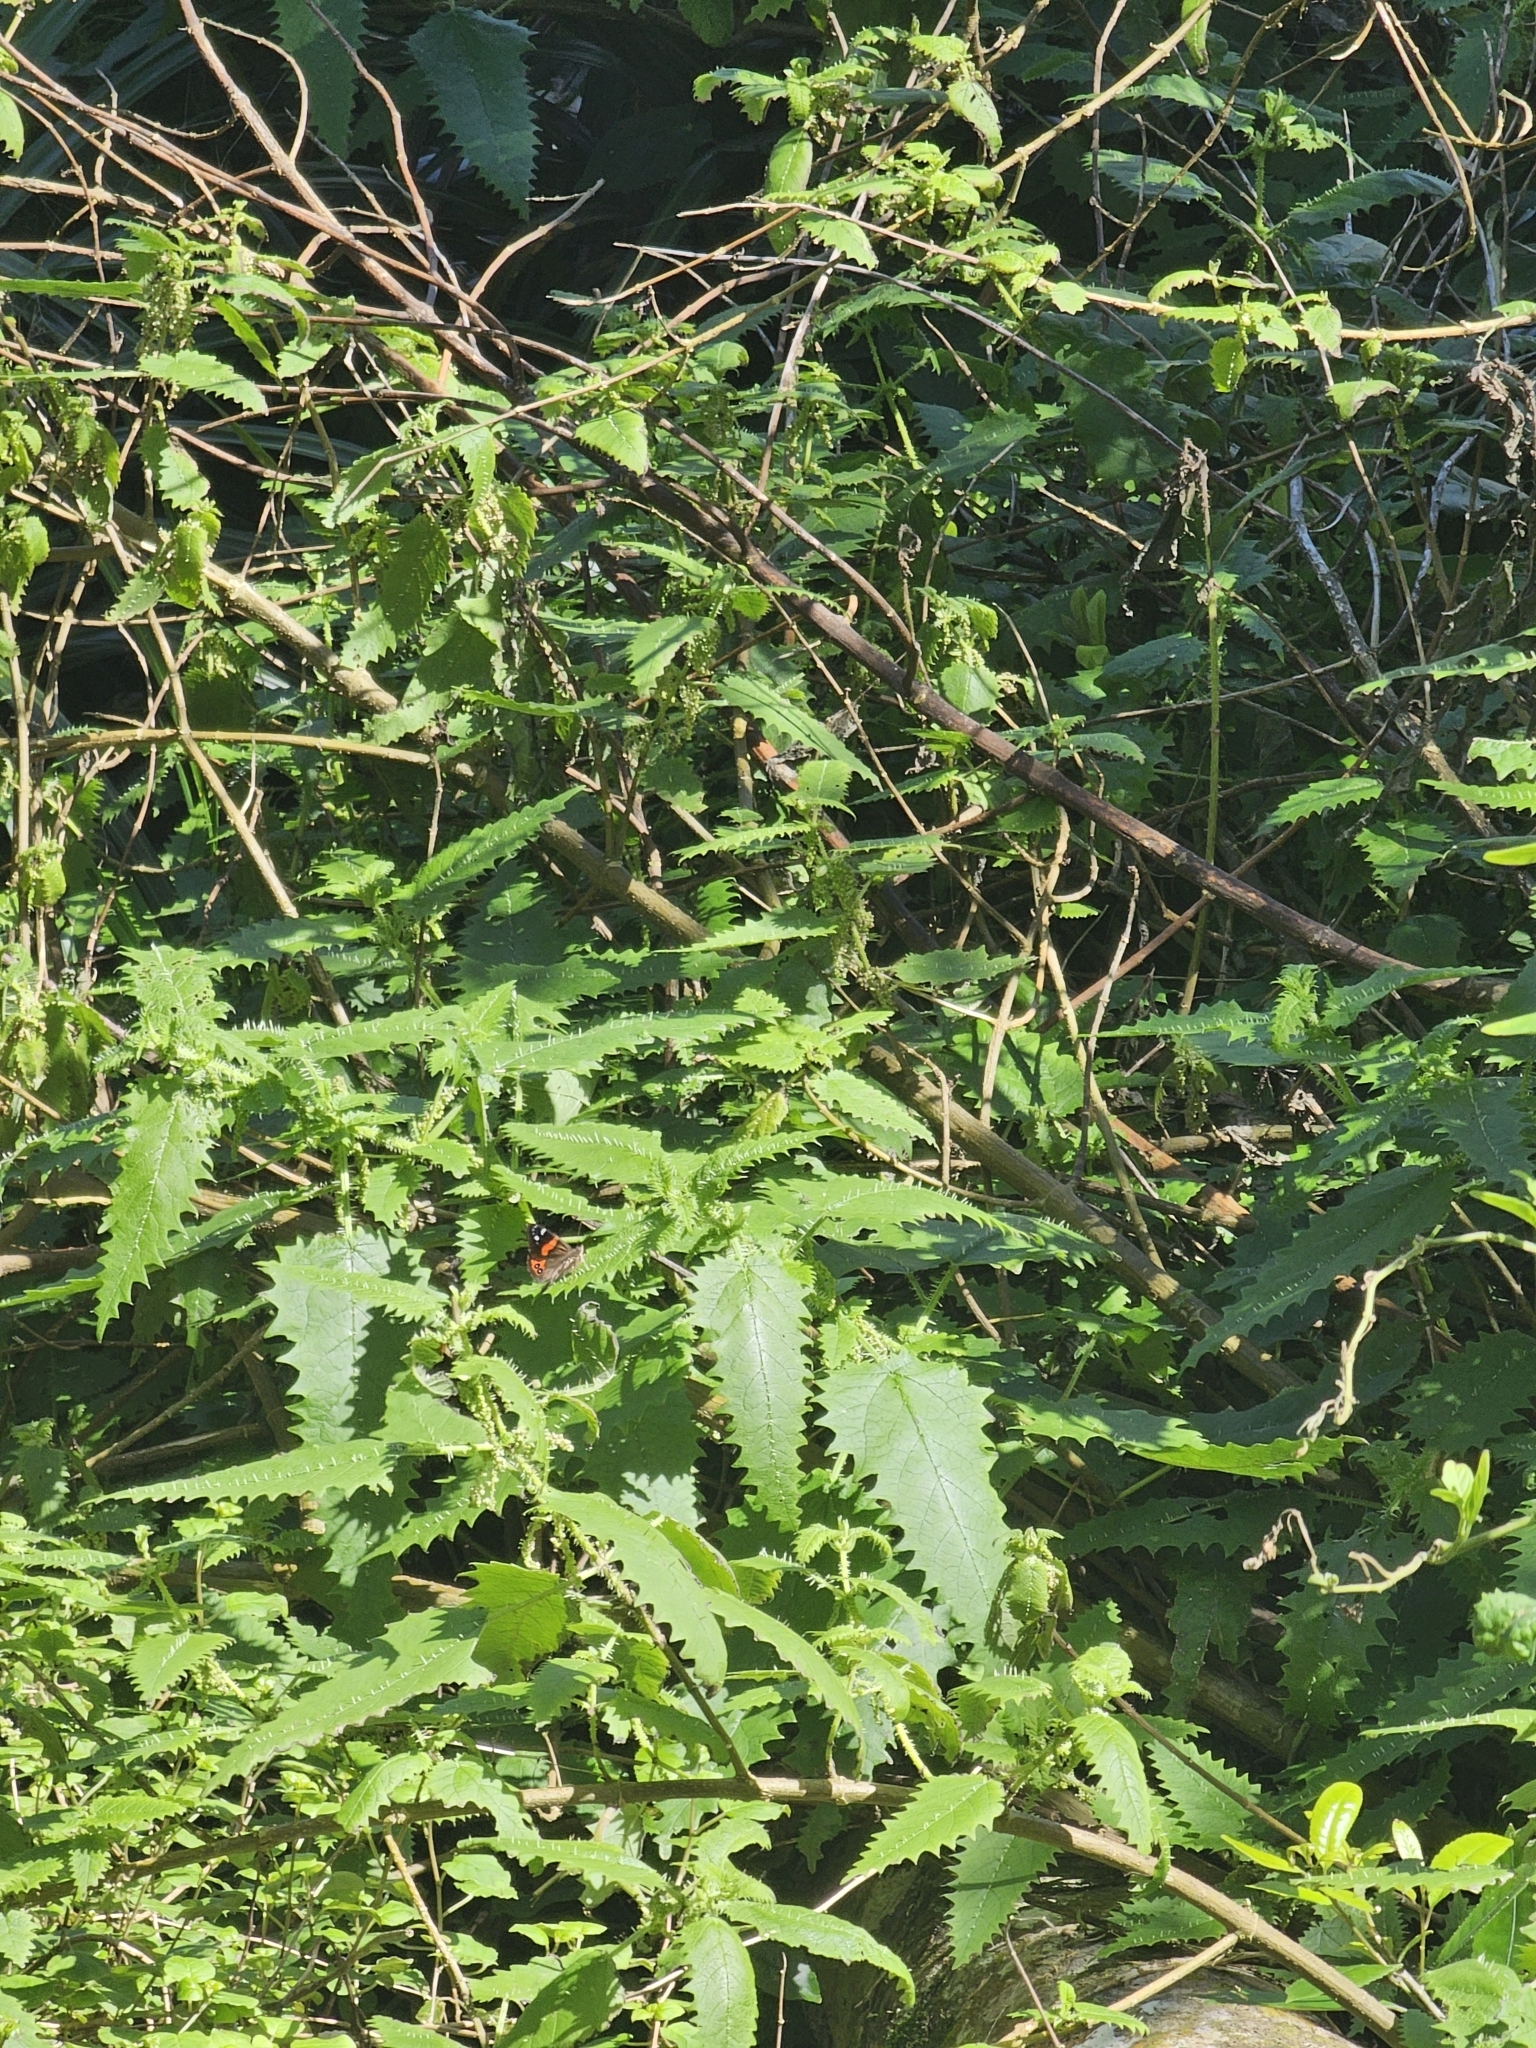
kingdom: Animalia
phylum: Arthropoda
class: Insecta
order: Lepidoptera
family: Nymphalidae
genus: Vanessa
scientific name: Vanessa gonerilla
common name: New zealand red admiral
